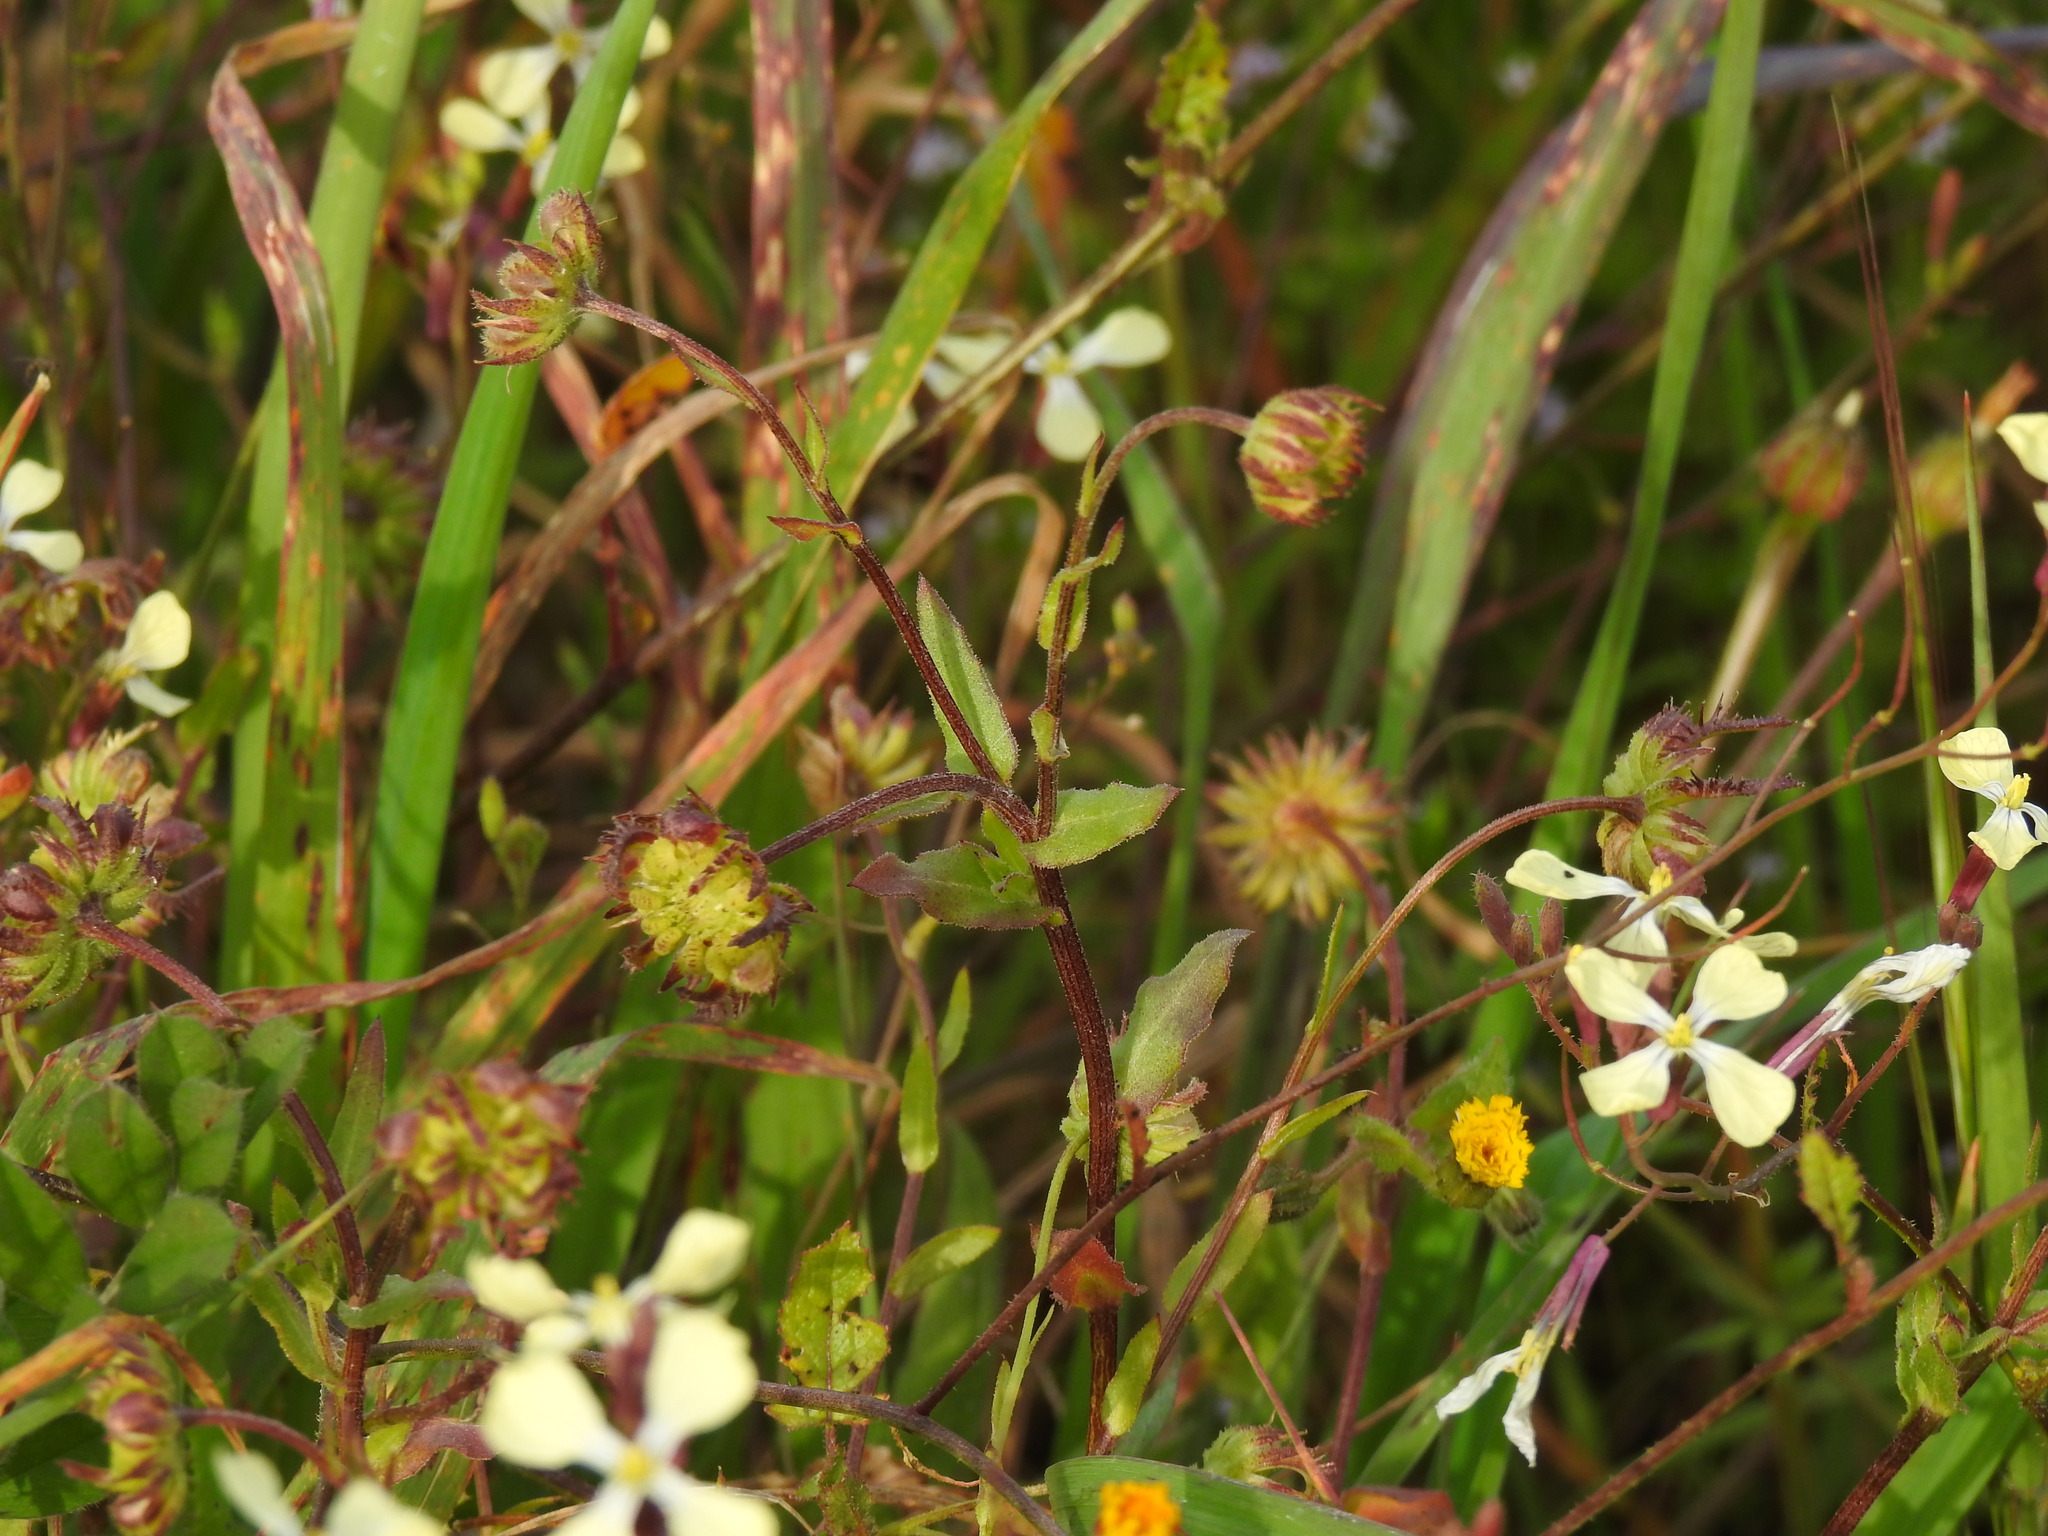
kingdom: Plantae
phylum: Tracheophyta
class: Magnoliopsida
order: Asterales
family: Asteraceae
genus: Calendula
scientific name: Calendula arvensis
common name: Field marigold
